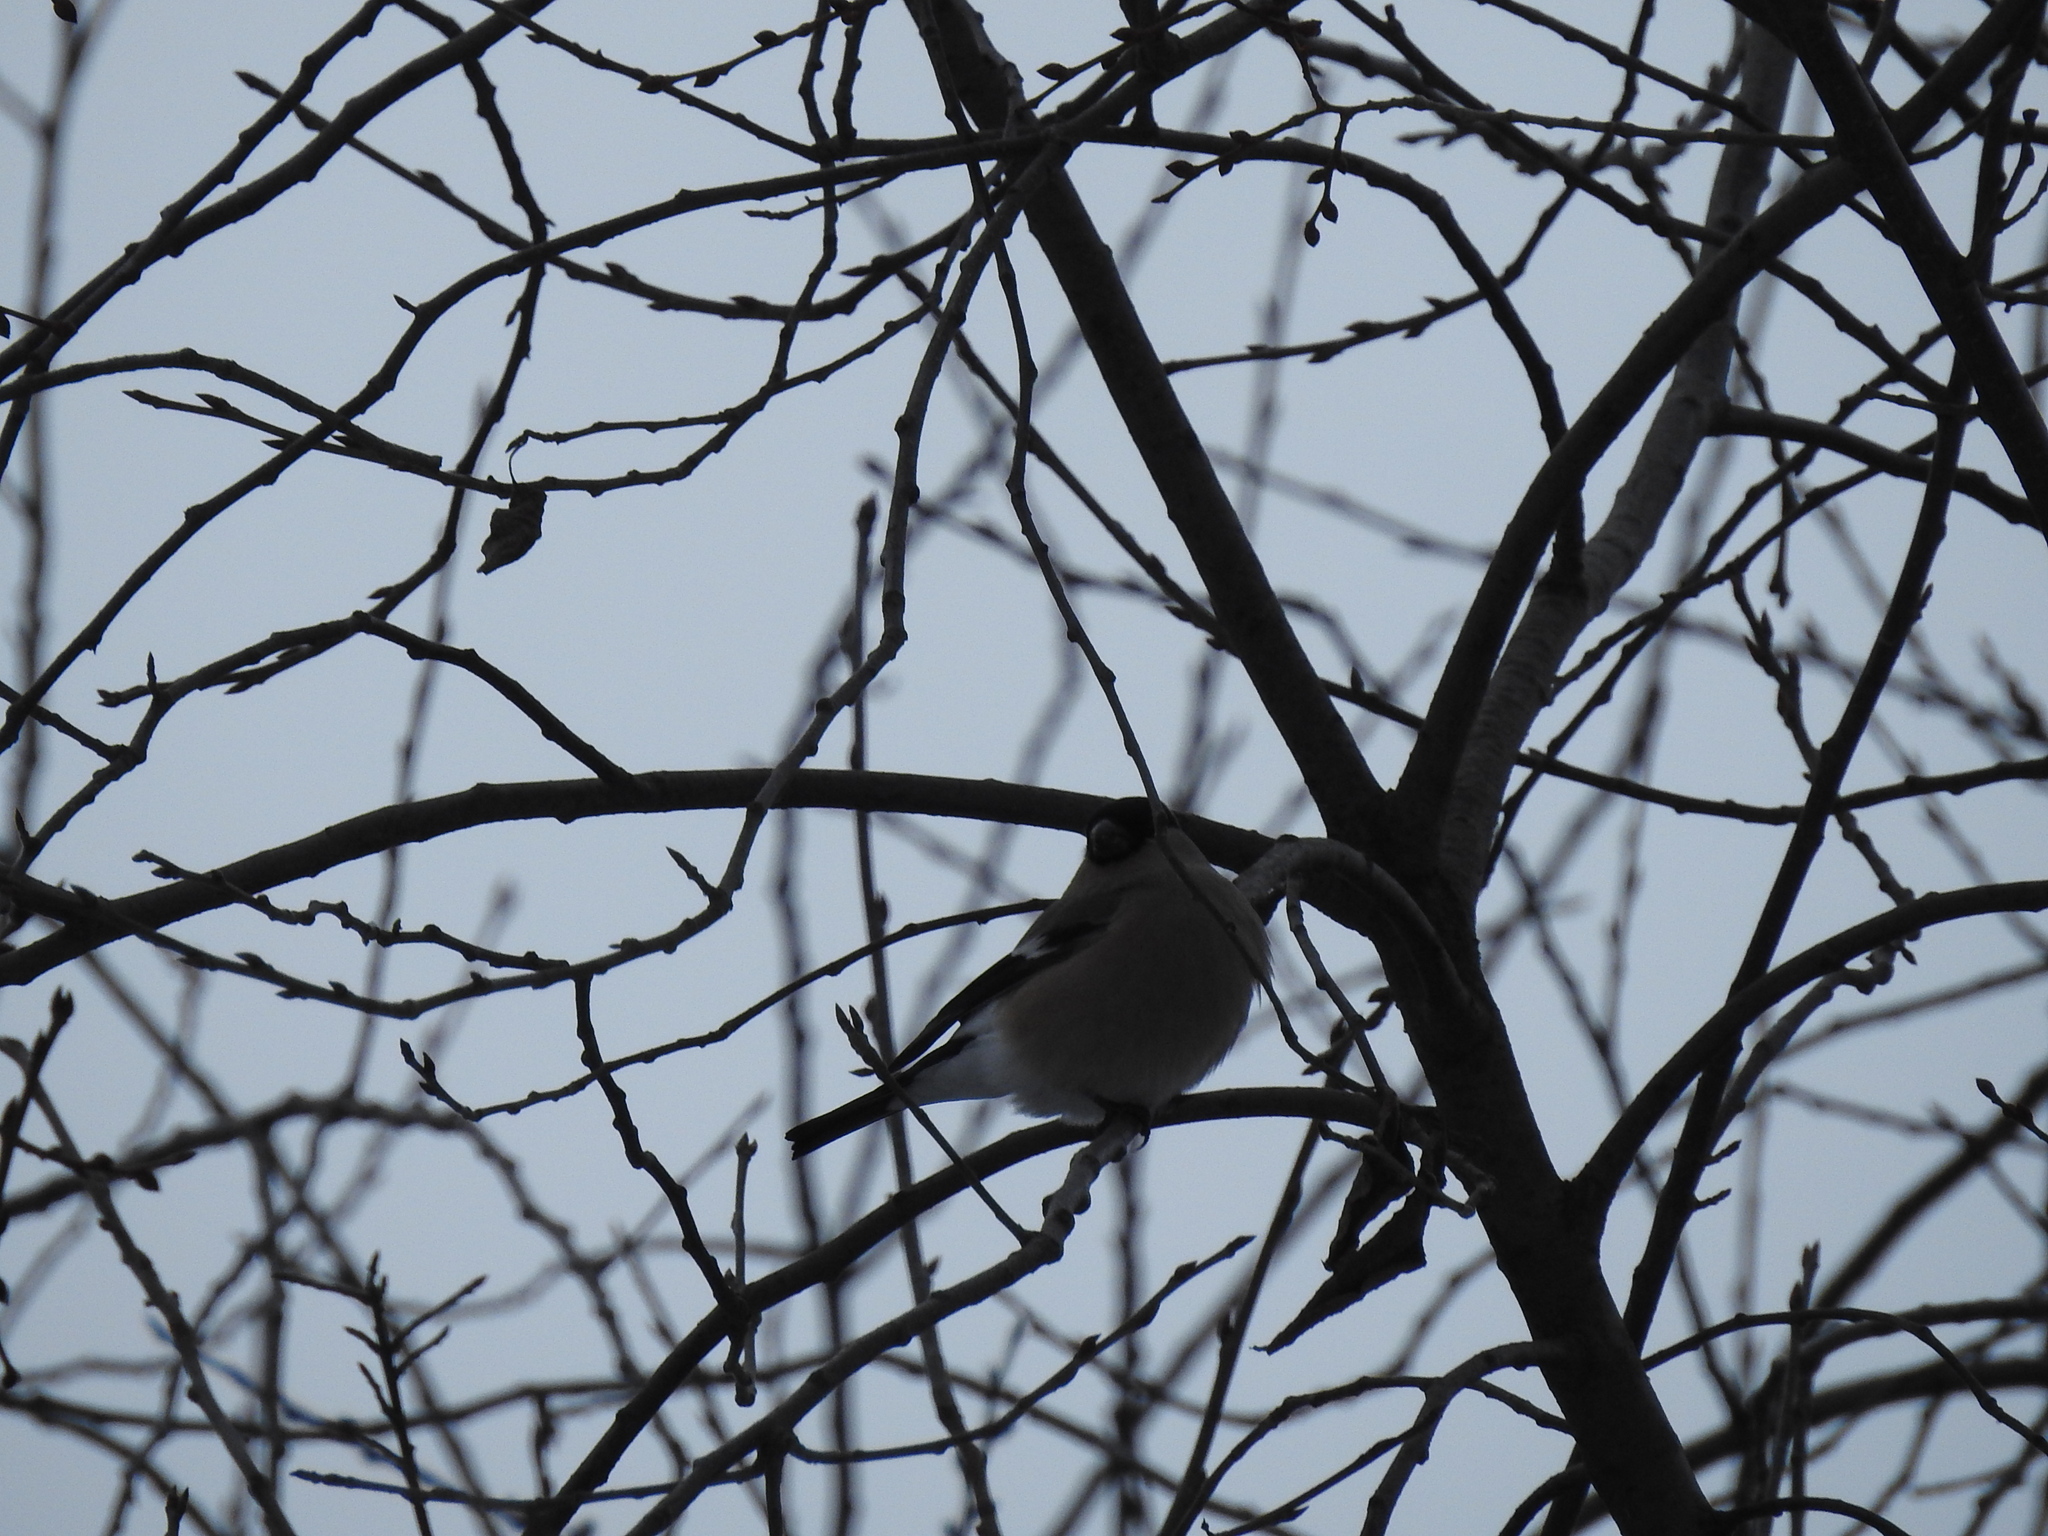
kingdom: Animalia
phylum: Chordata
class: Aves
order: Passeriformes
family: Fringillidae
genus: Pyrrhula
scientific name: Pyrrhula pyrrhula
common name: Eurasian bullfinch
